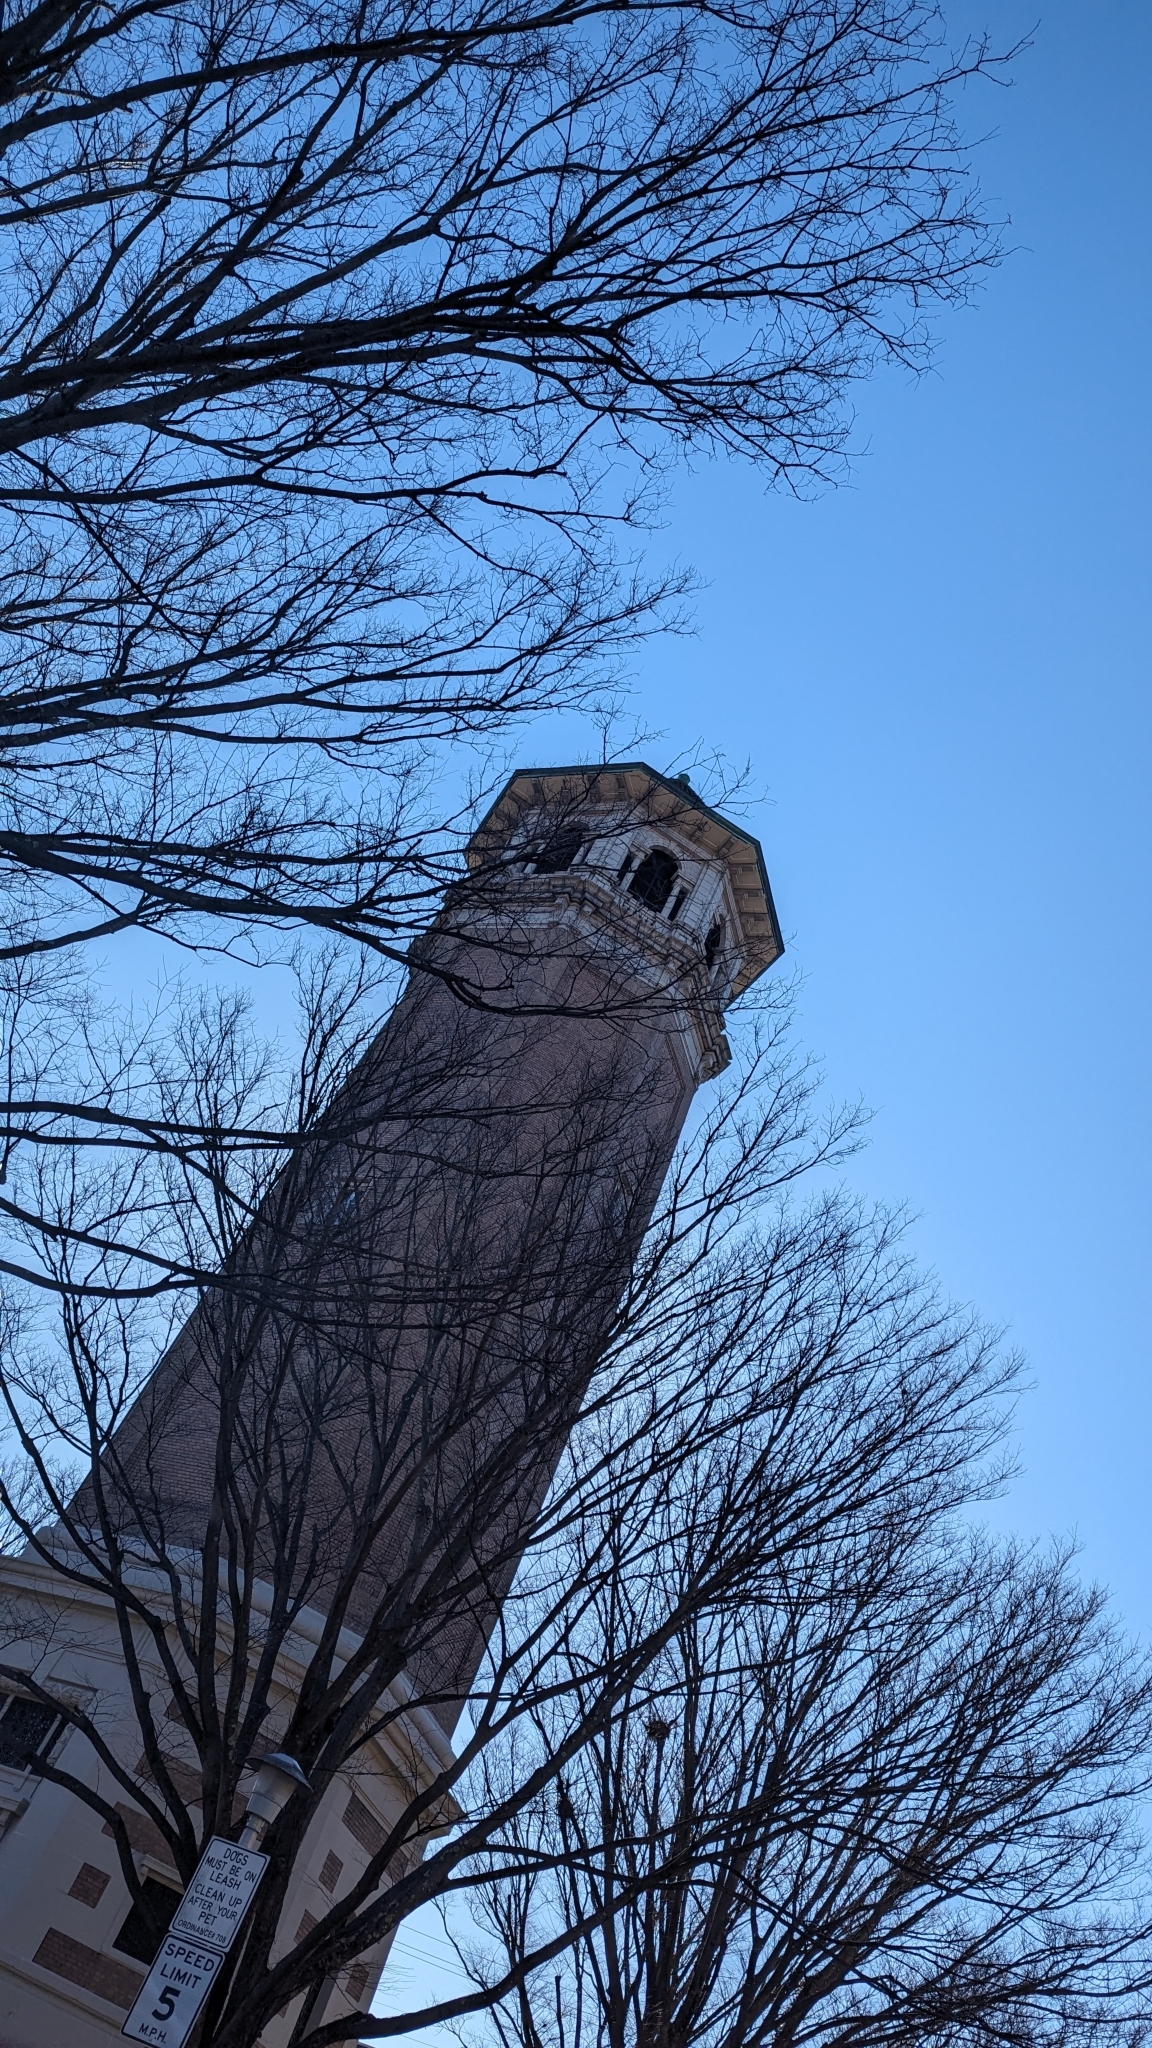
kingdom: Animalia
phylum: Chordata
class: Aves
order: Falconiformes
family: Falconidae
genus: Falco
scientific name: Falco peregrinus
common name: Peregrine falcon
